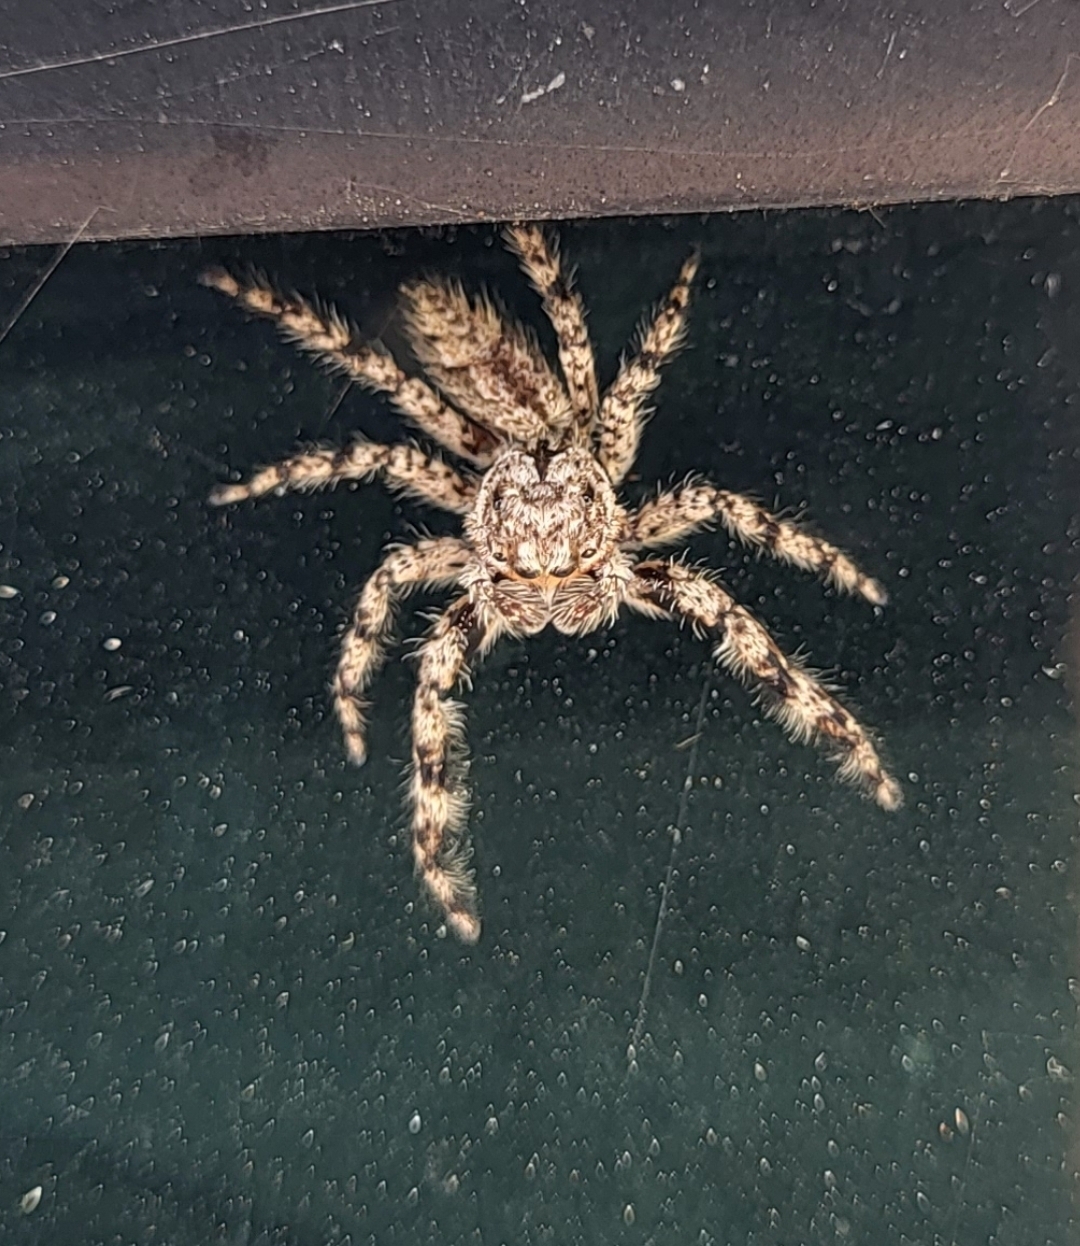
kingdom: Animalia
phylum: Arthropoda
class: Arachnida
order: Araneae
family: Salticidae
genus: Platycryptus
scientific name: Platycryptus undatus
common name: Tan jumping spider
